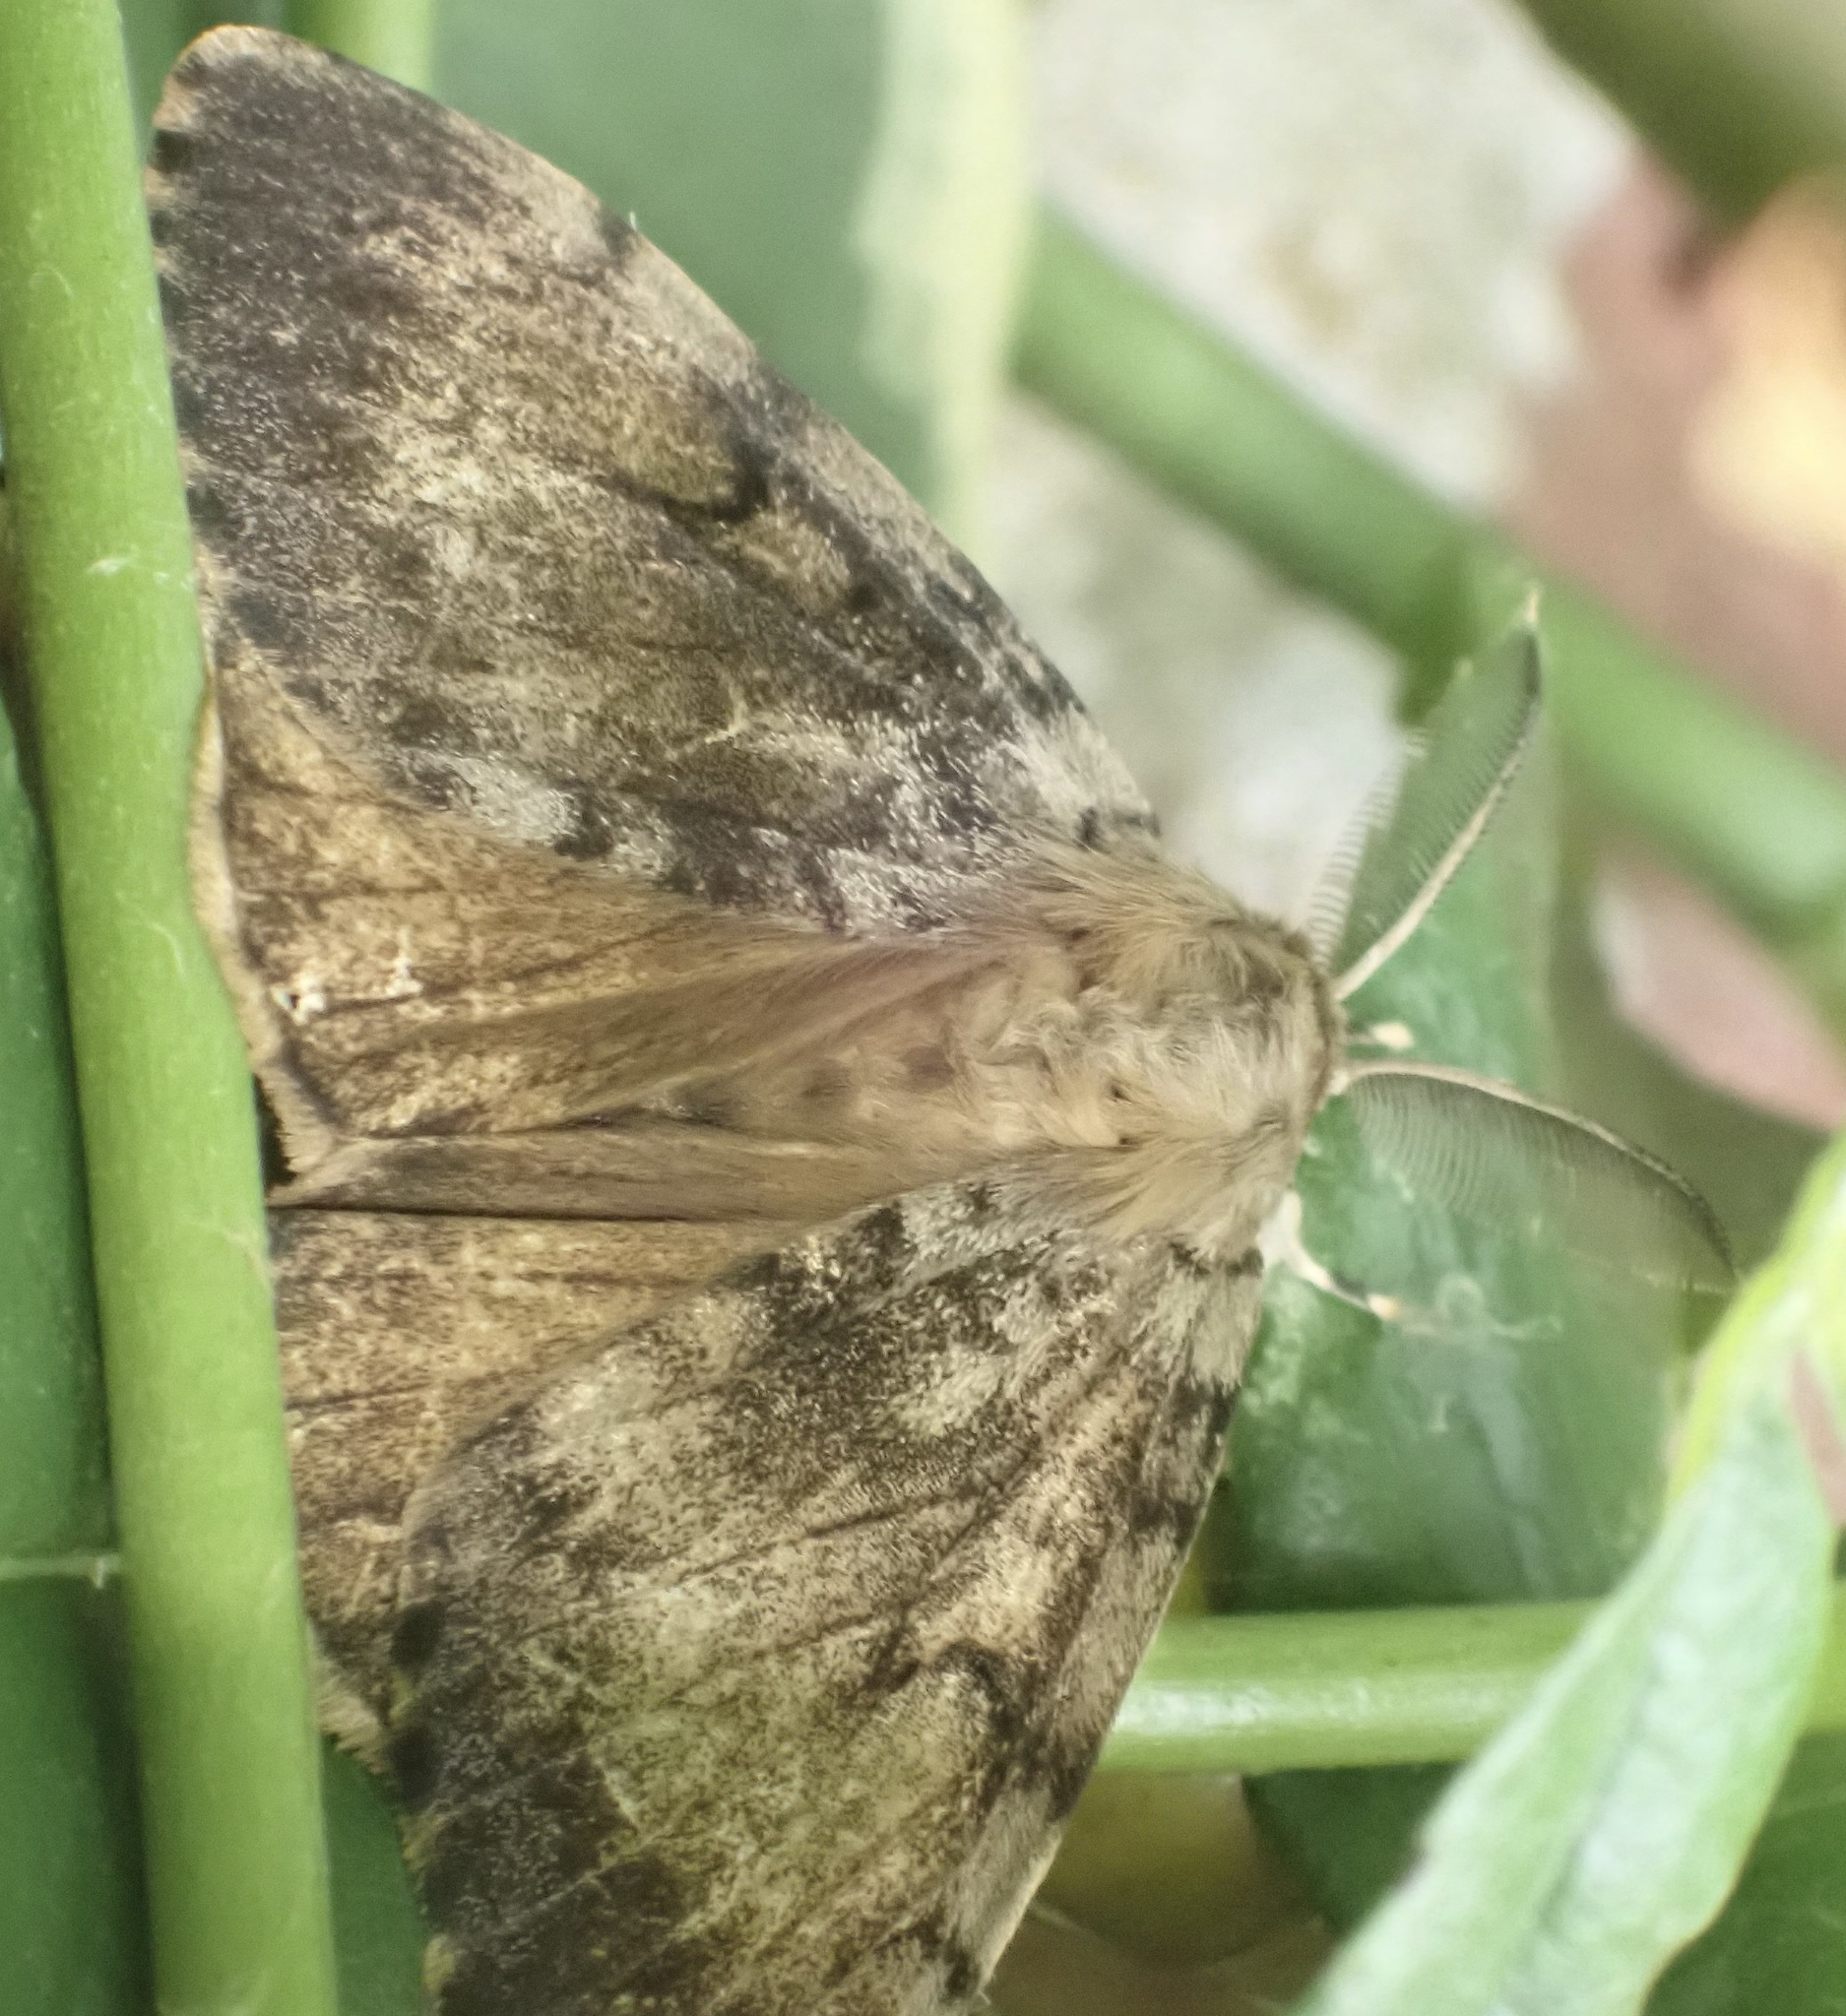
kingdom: Animalia
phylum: Arthropoda
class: Insecta
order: Lepidoptera
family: Erebidae
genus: Lymantria
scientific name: Lymantria dispar
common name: Gypsy moth
